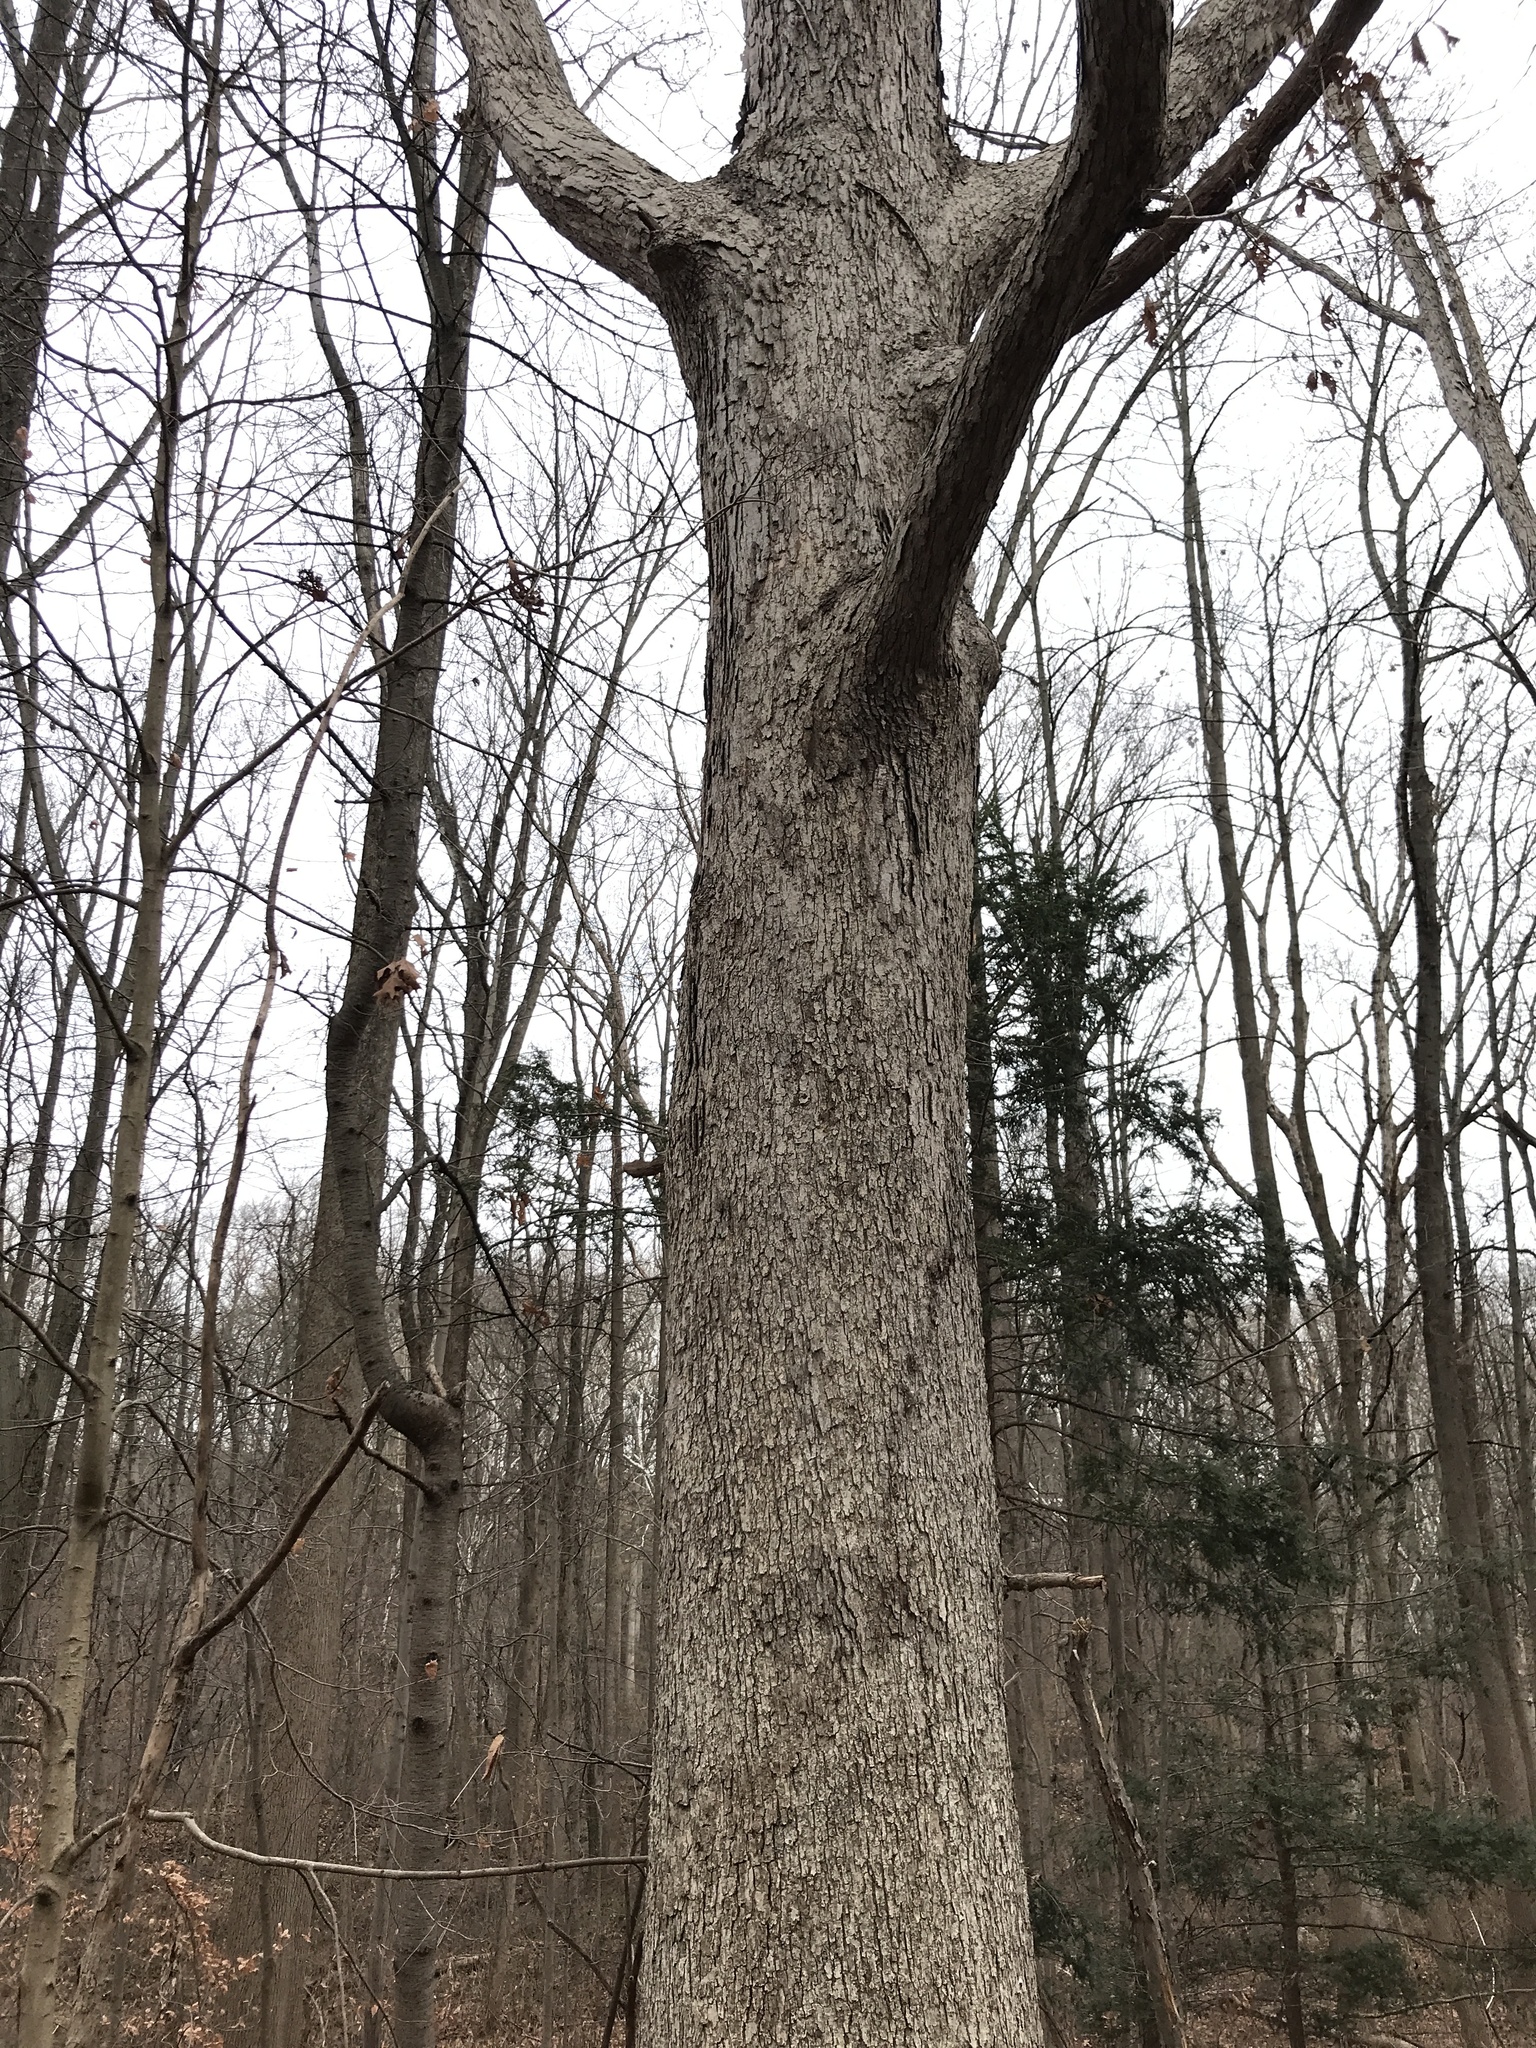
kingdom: Plantae
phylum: Tracheophyta
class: Magnoliopsida
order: Fagales
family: Fagaceae
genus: Quercus
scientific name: Quercus alba
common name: White oak
